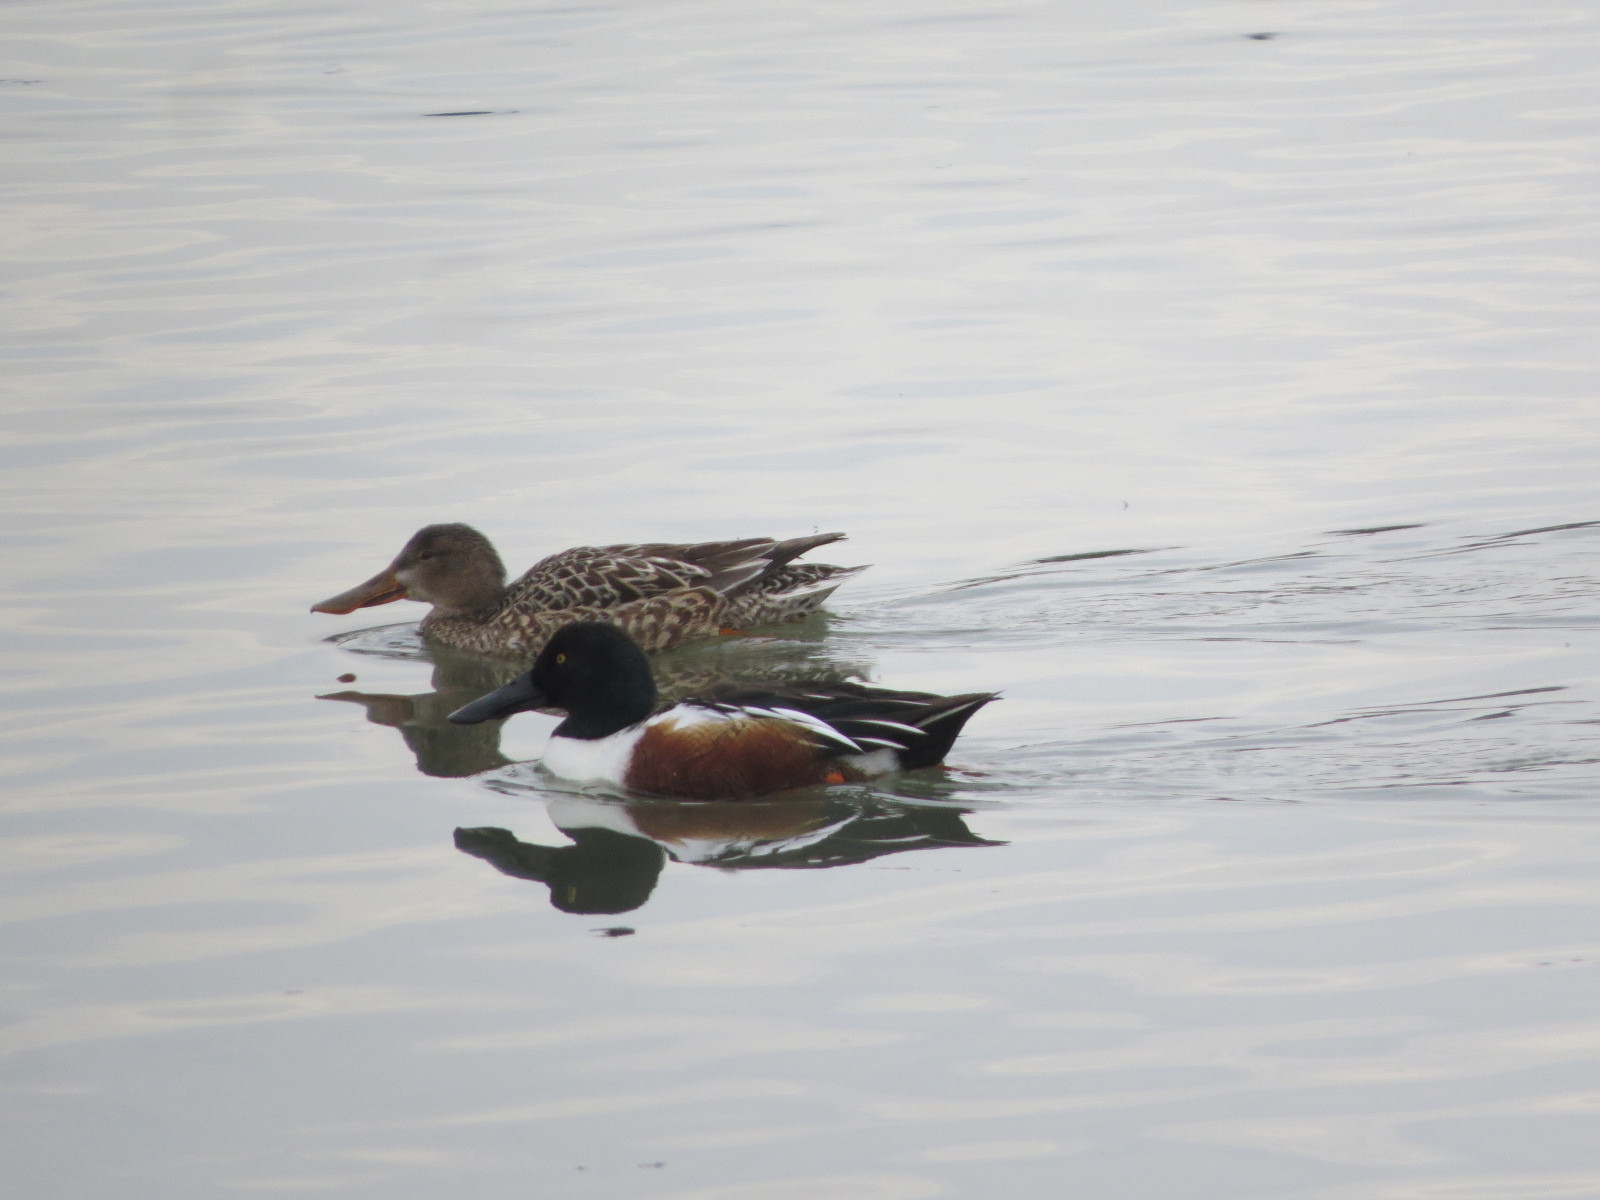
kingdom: Animalia
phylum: Chordata
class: Aves
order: Anseriformes
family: Anatidae
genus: Spatula
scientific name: Spatula clypeata
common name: Northern shoveler
